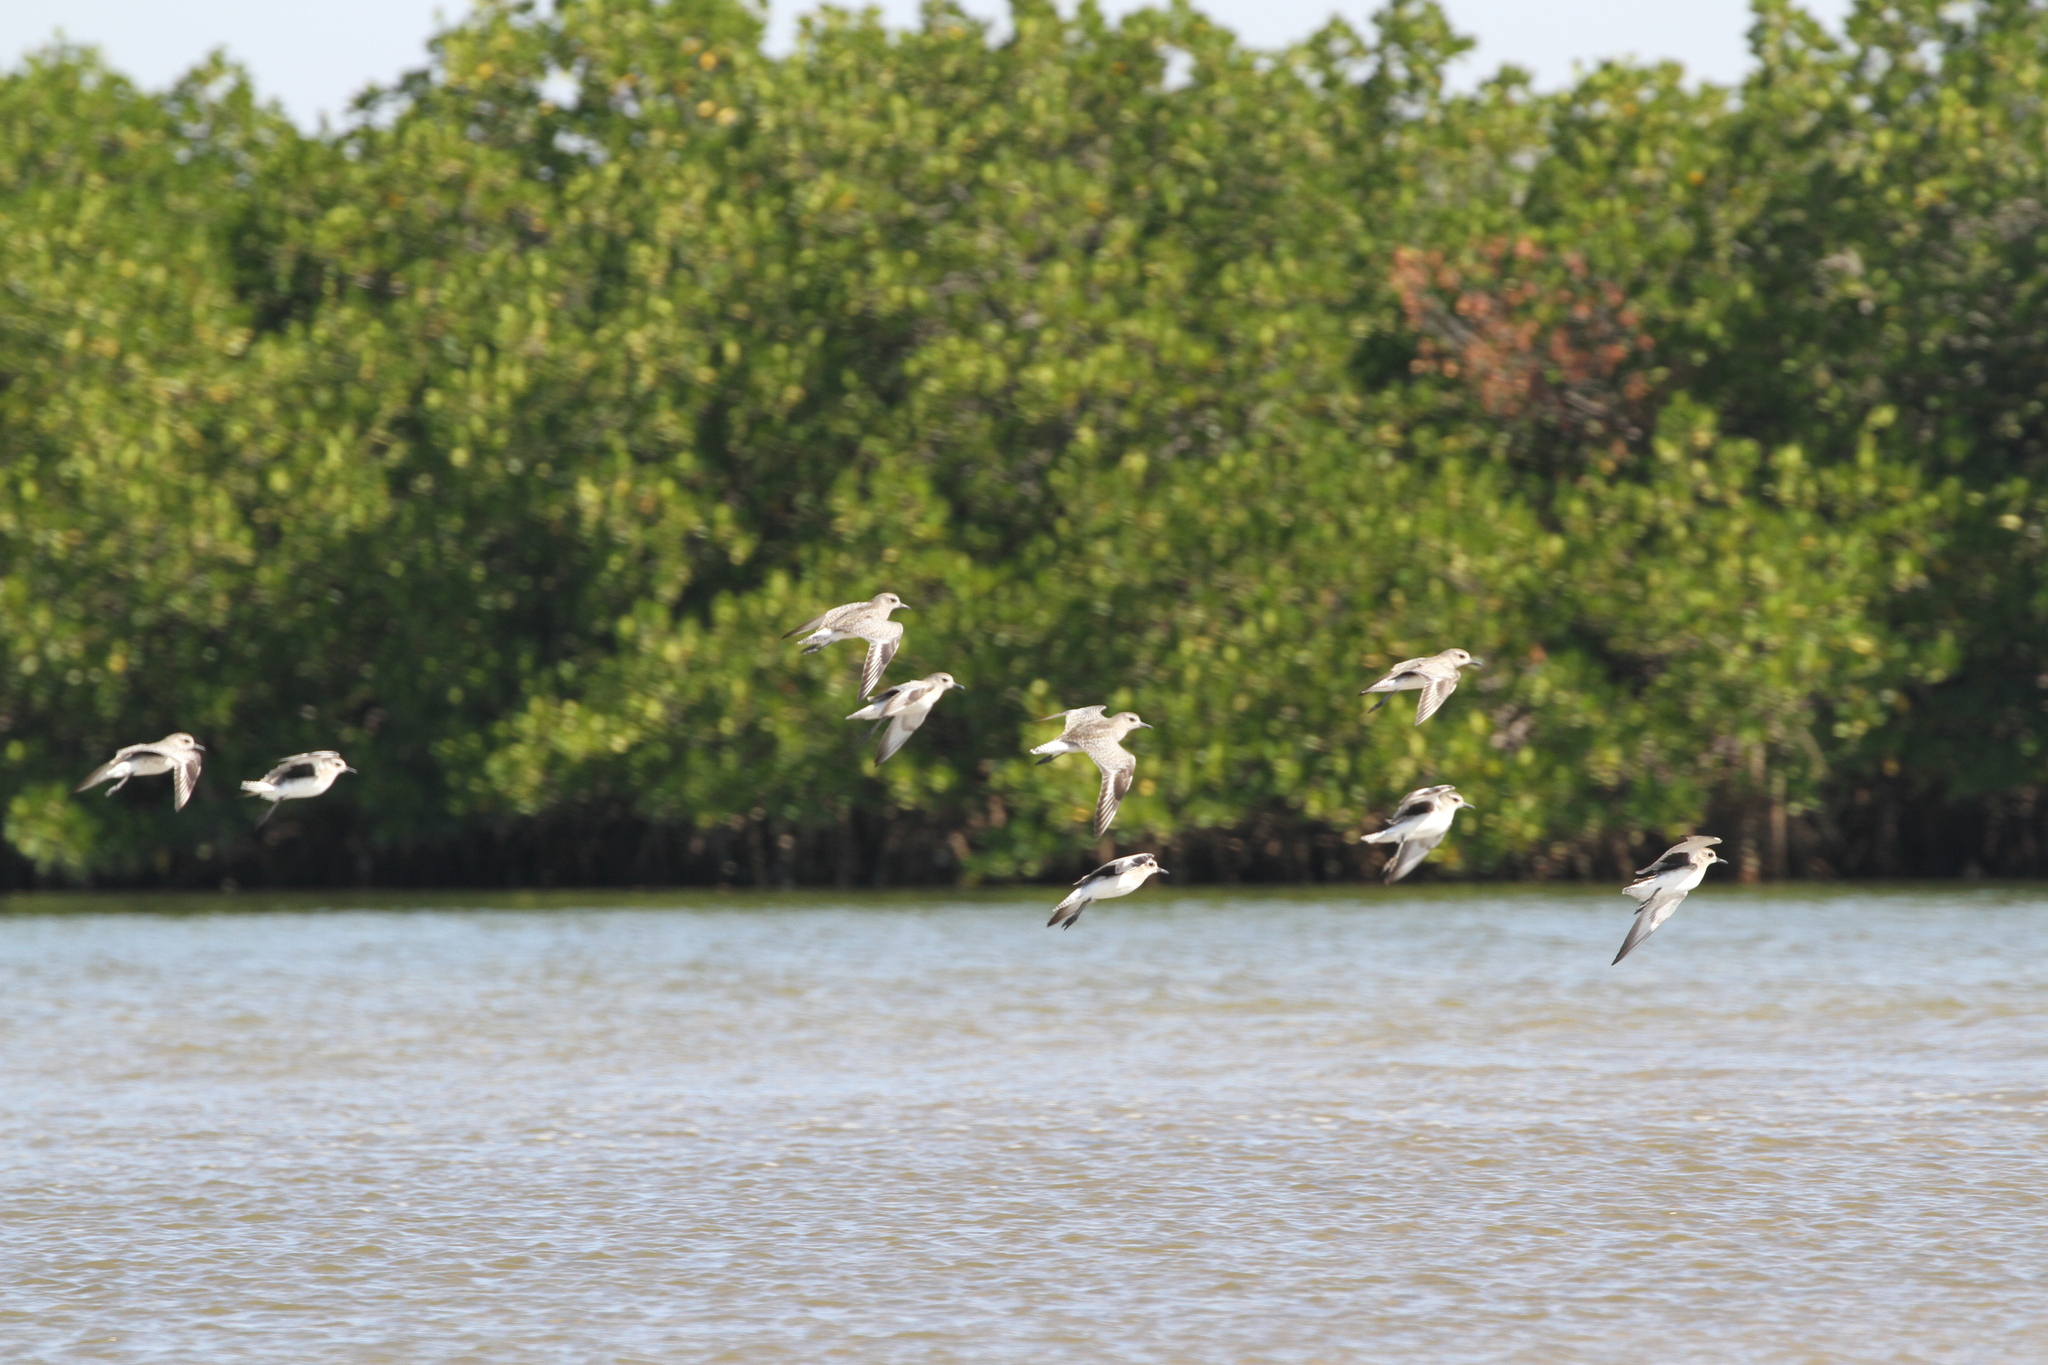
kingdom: Animalia
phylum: Chordata
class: Aves
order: Charadriiformes
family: Charadriidae
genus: Pluvialis
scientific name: Pluvialis squatarola
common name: Grey plover
